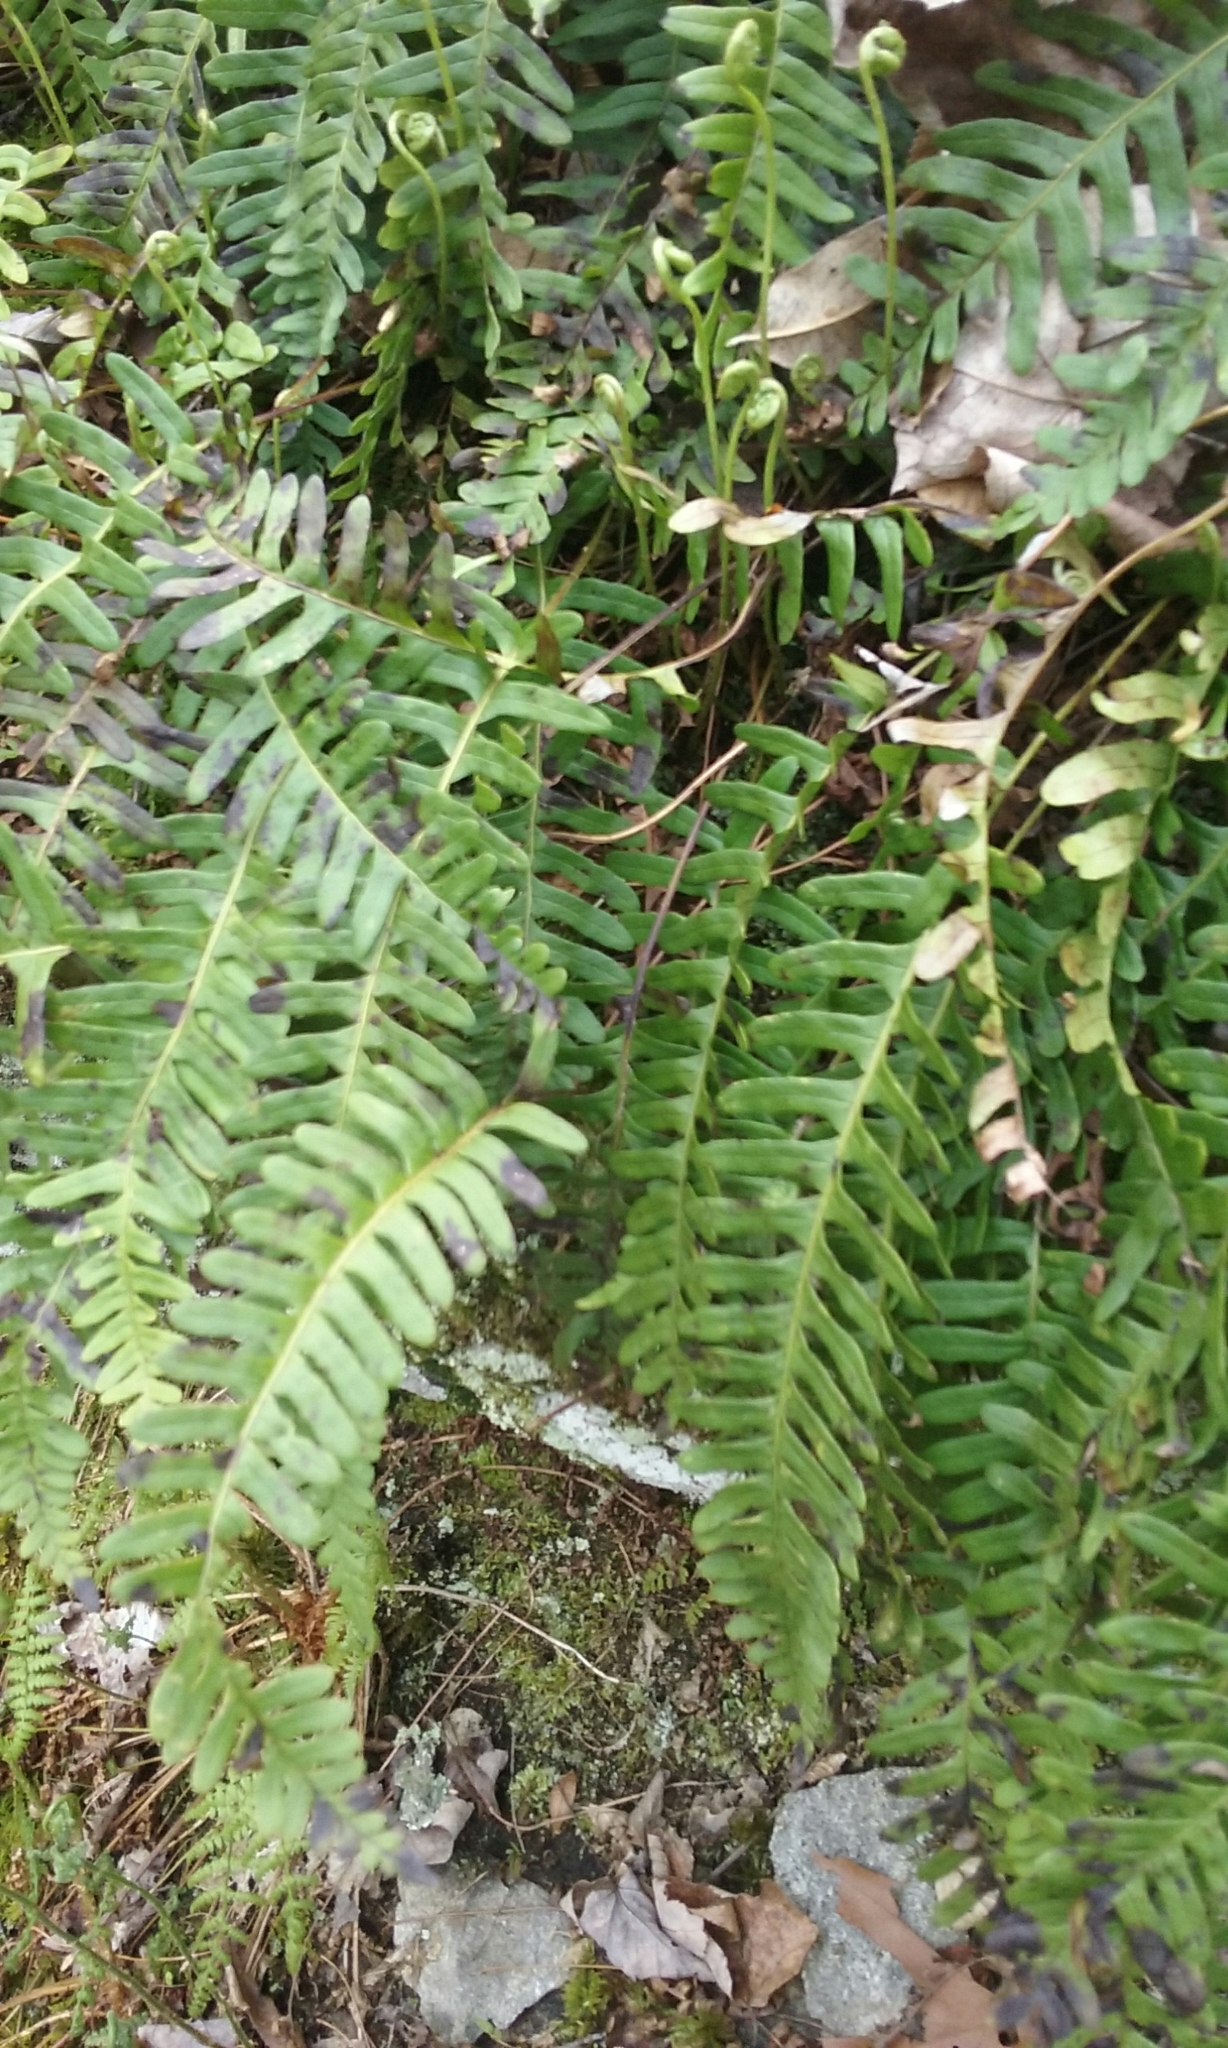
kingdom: Plantae
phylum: Tracheophyta
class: Polypodiopsida
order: Polypodiales
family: Polypodiaceae
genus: Polypodium
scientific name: Polypodium virginianum
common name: American wall fern
